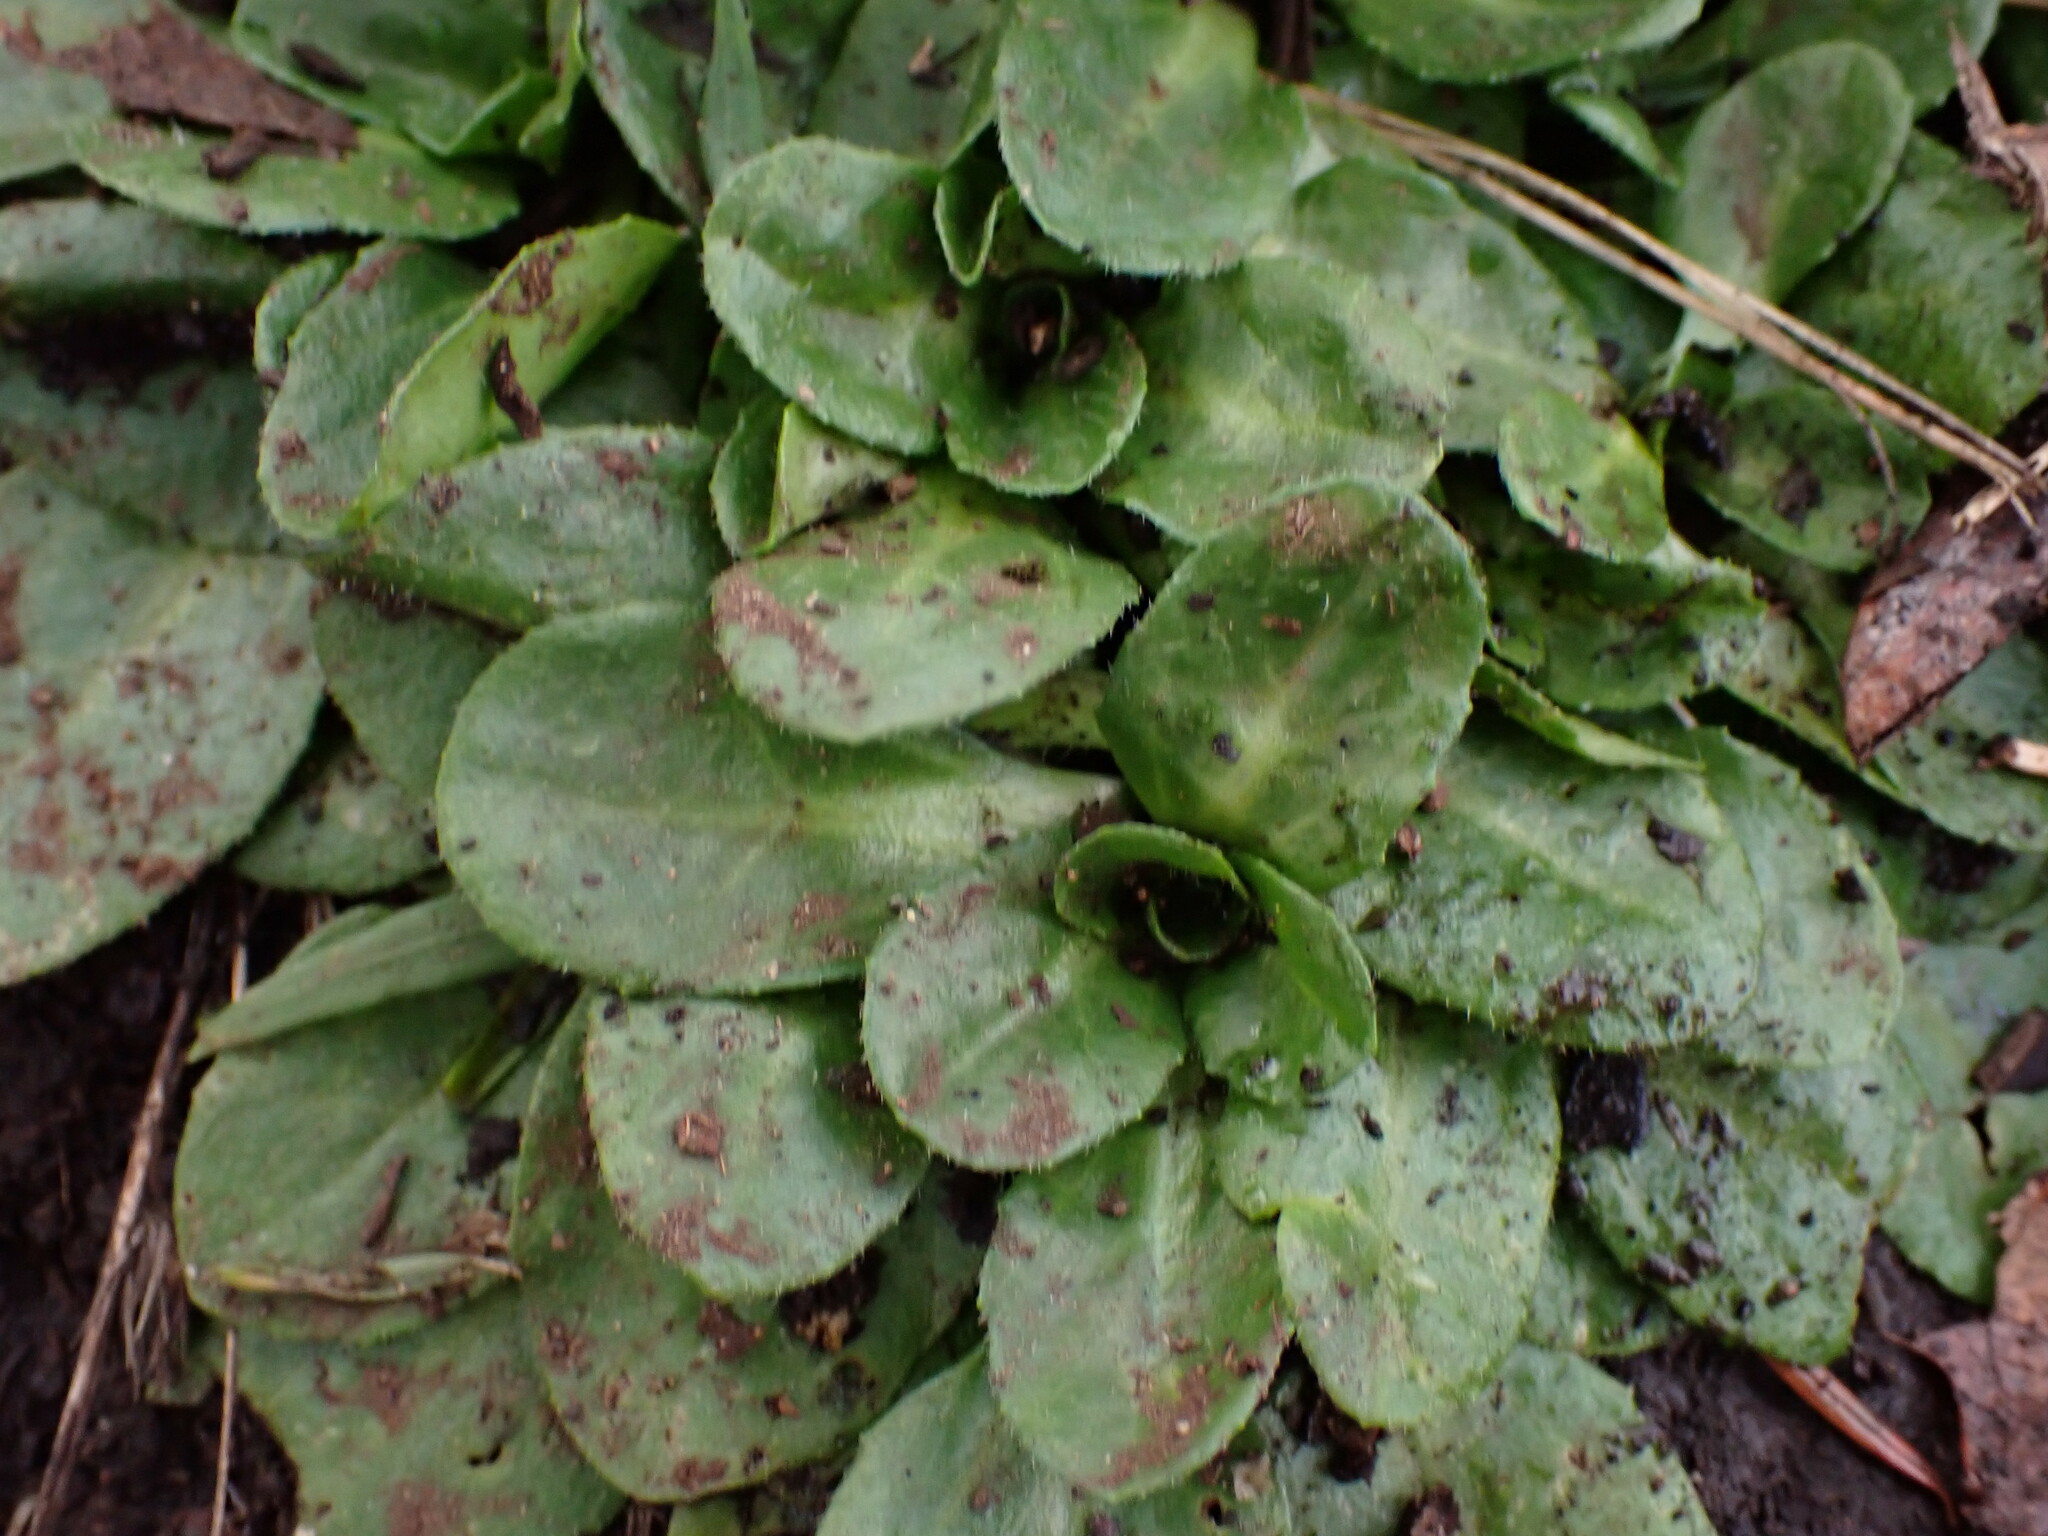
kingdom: Plantae
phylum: Tracheophyta
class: Magnoliopsida
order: Asterales
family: Asteraceae
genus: Bellis
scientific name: Bellis perennis
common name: Lawndaisy
